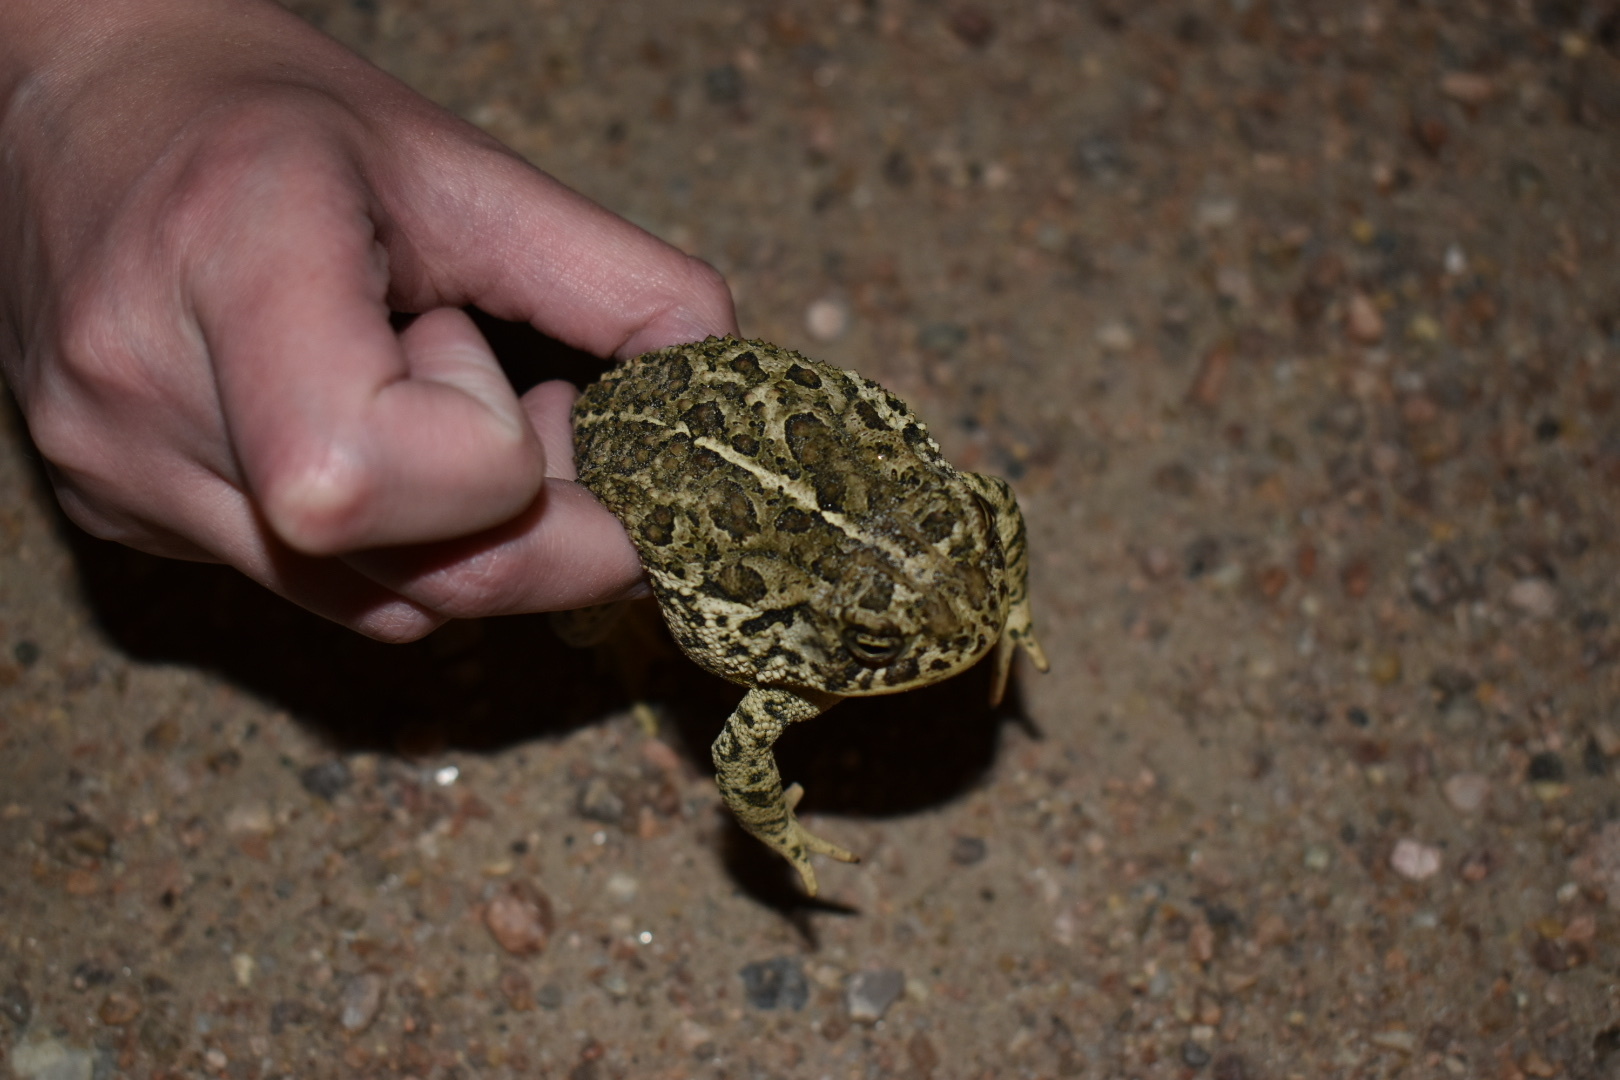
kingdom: Animalia
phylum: Chordata
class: Amphibia
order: Anura
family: Bufonidae
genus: Anaxyrus
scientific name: Anaxyrus woodhousii
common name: Woodhouse's toad
